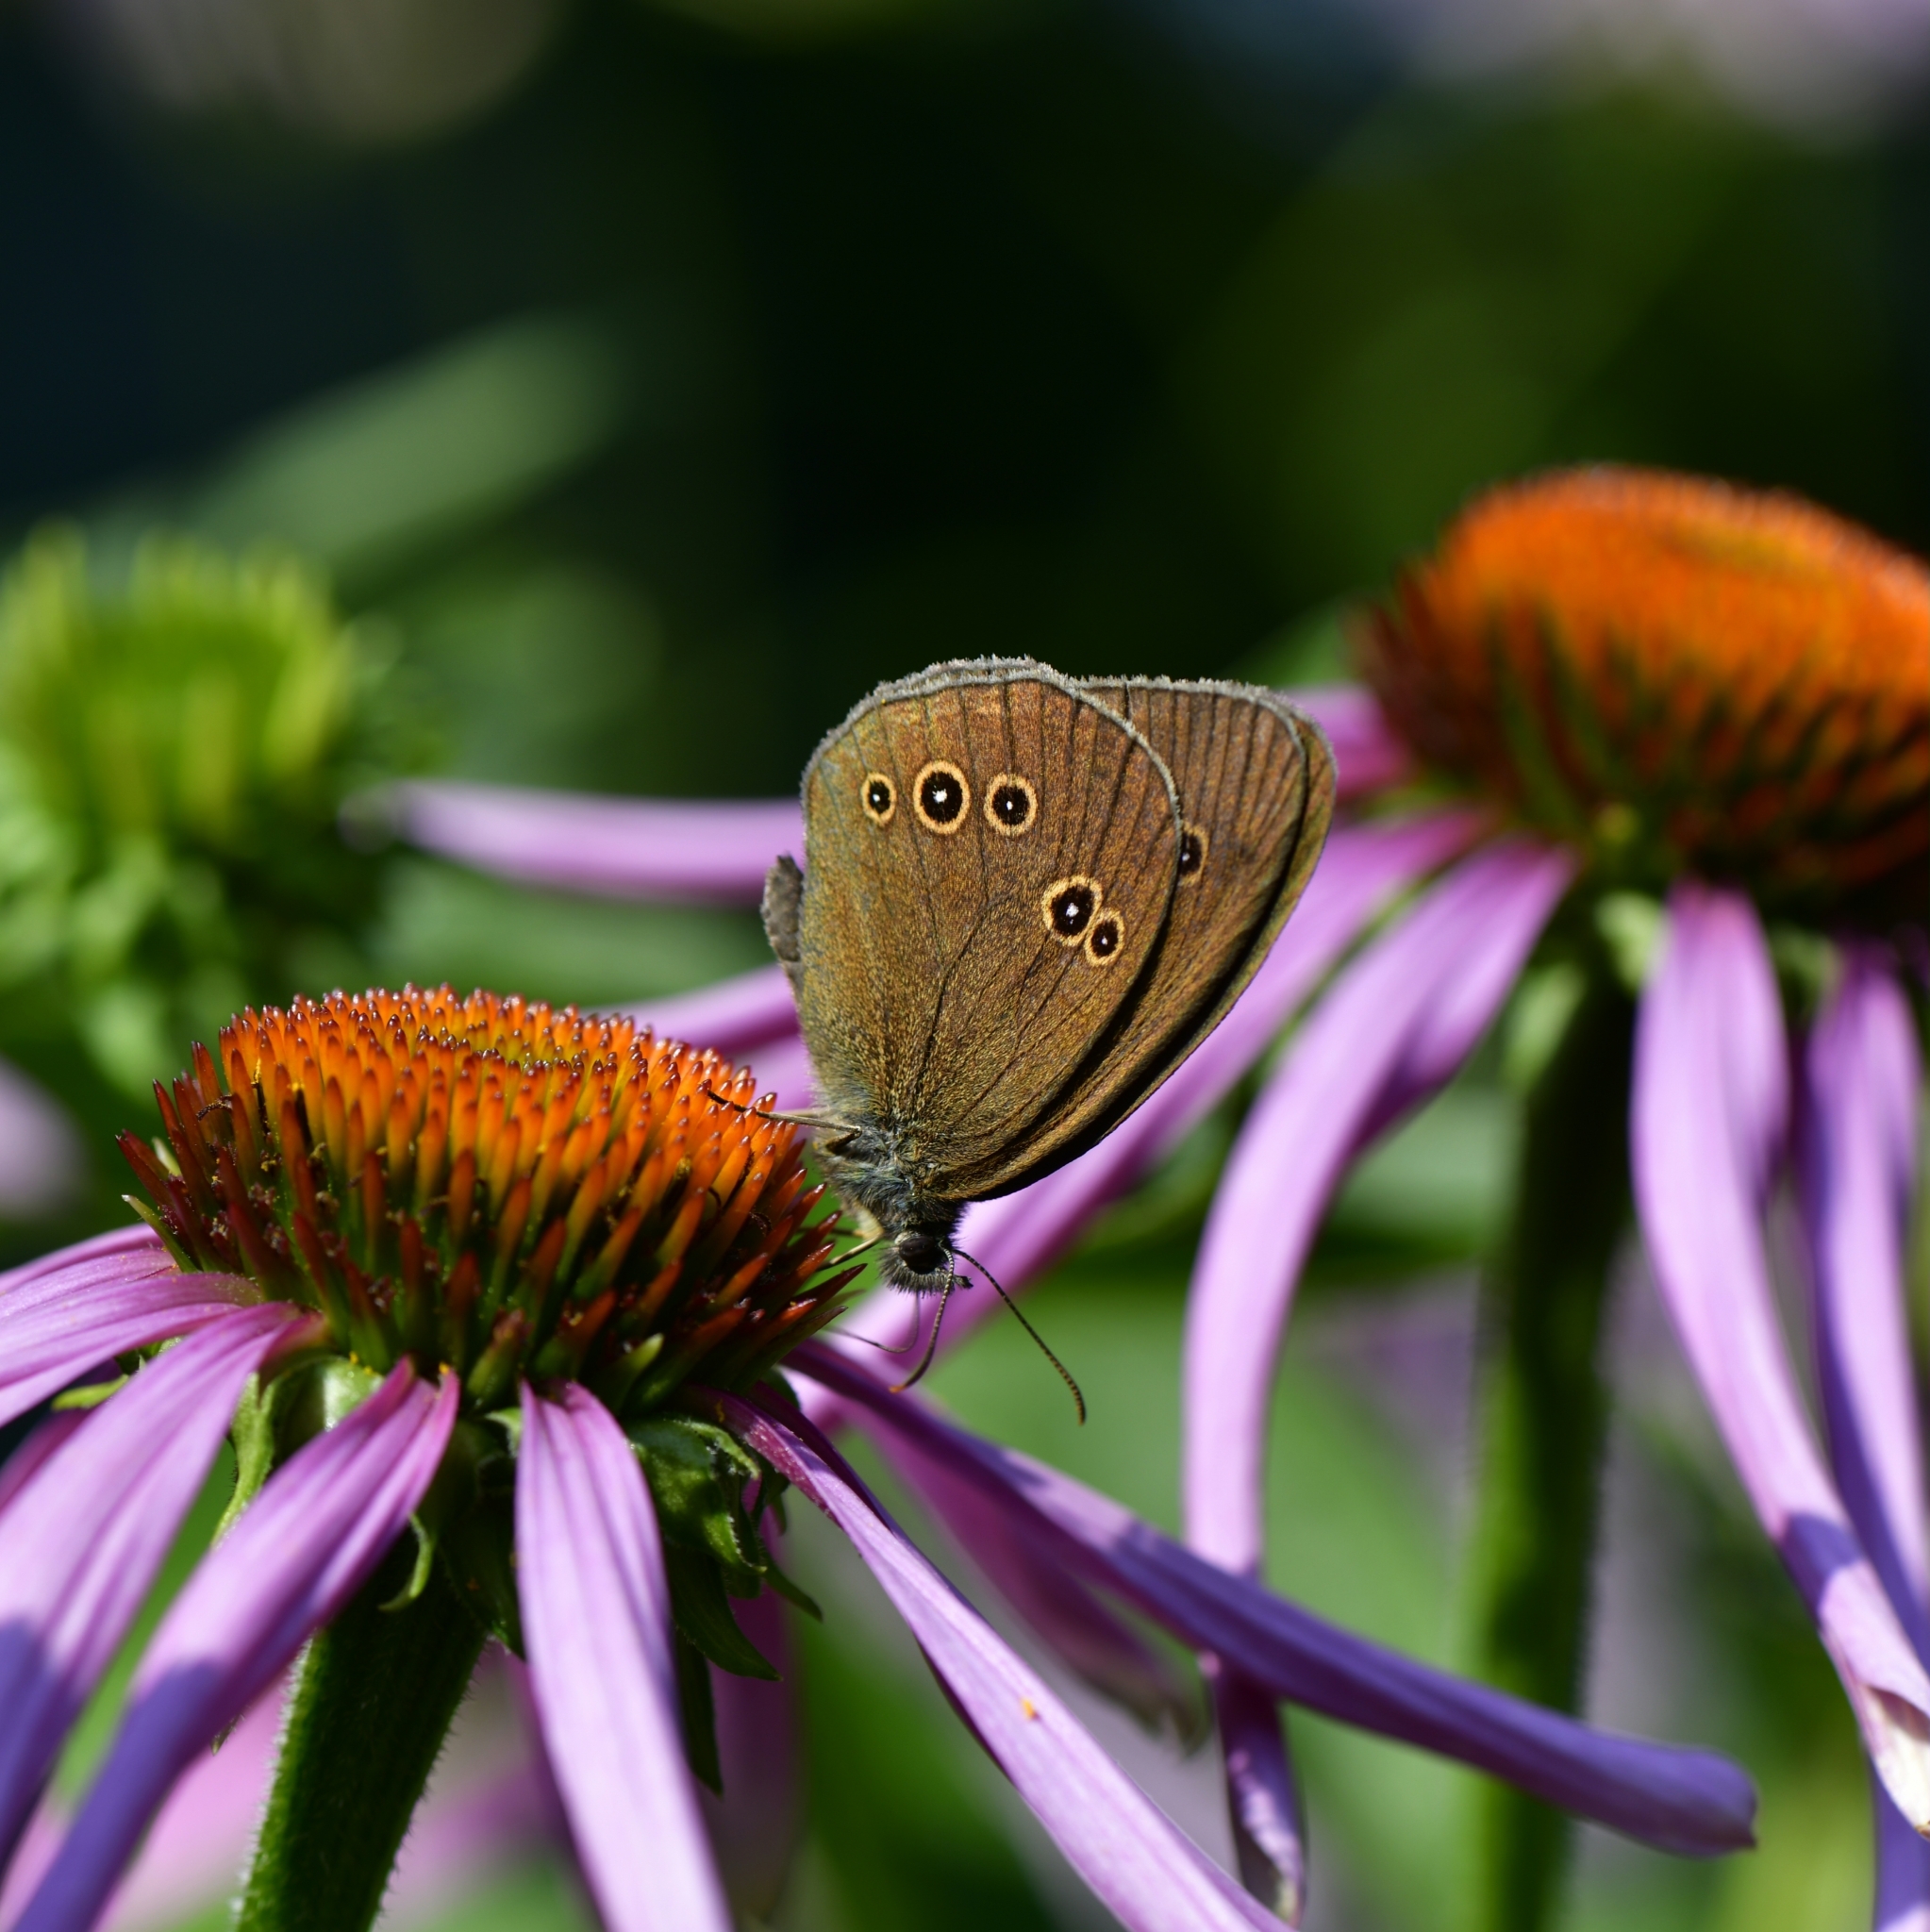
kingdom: Animalia
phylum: Arthropoda
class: Insecta
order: Lepidoptera
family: Nymphalidae
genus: Aphantopus
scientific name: Aphantopus hyperantus
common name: Ringlet
